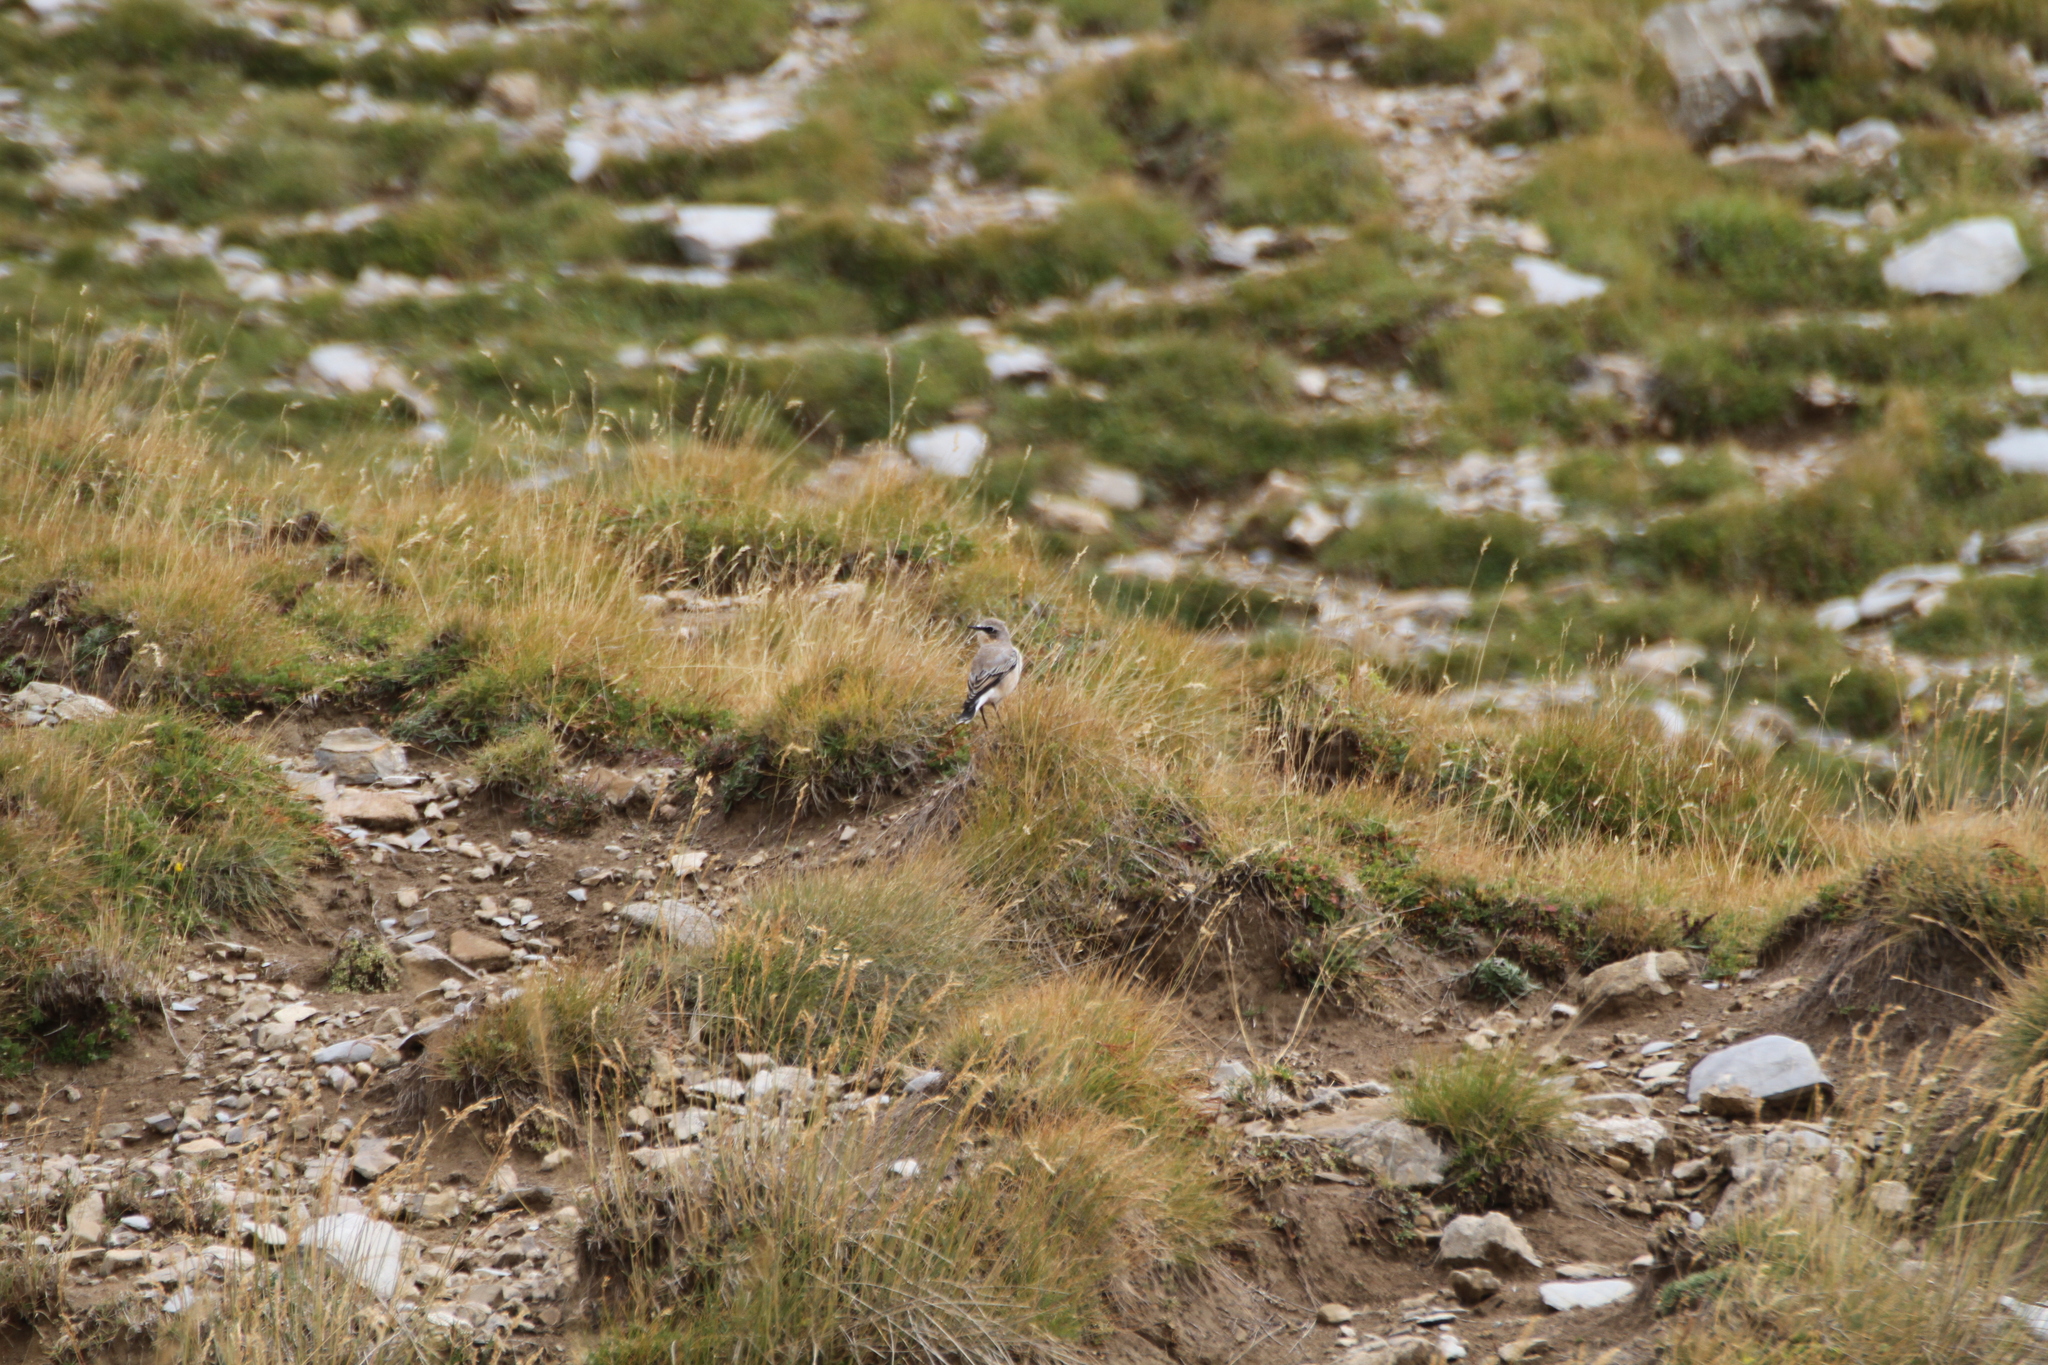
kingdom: Animalia
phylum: Chordata
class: Aves
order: Passeriformes
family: Muscicapidae
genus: Oenanthe
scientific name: Oenanthe oenanthe
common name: Northern wheatear
